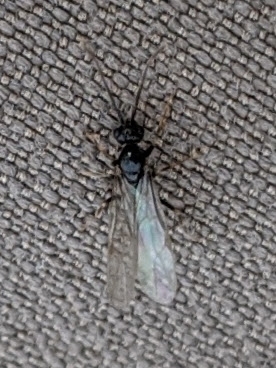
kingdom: Animalia
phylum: Arthropoda
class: Insecta
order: Hymenoptera
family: Formicidae
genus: Prenolepis
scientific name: Prenolepis imparis
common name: Small honey ant
